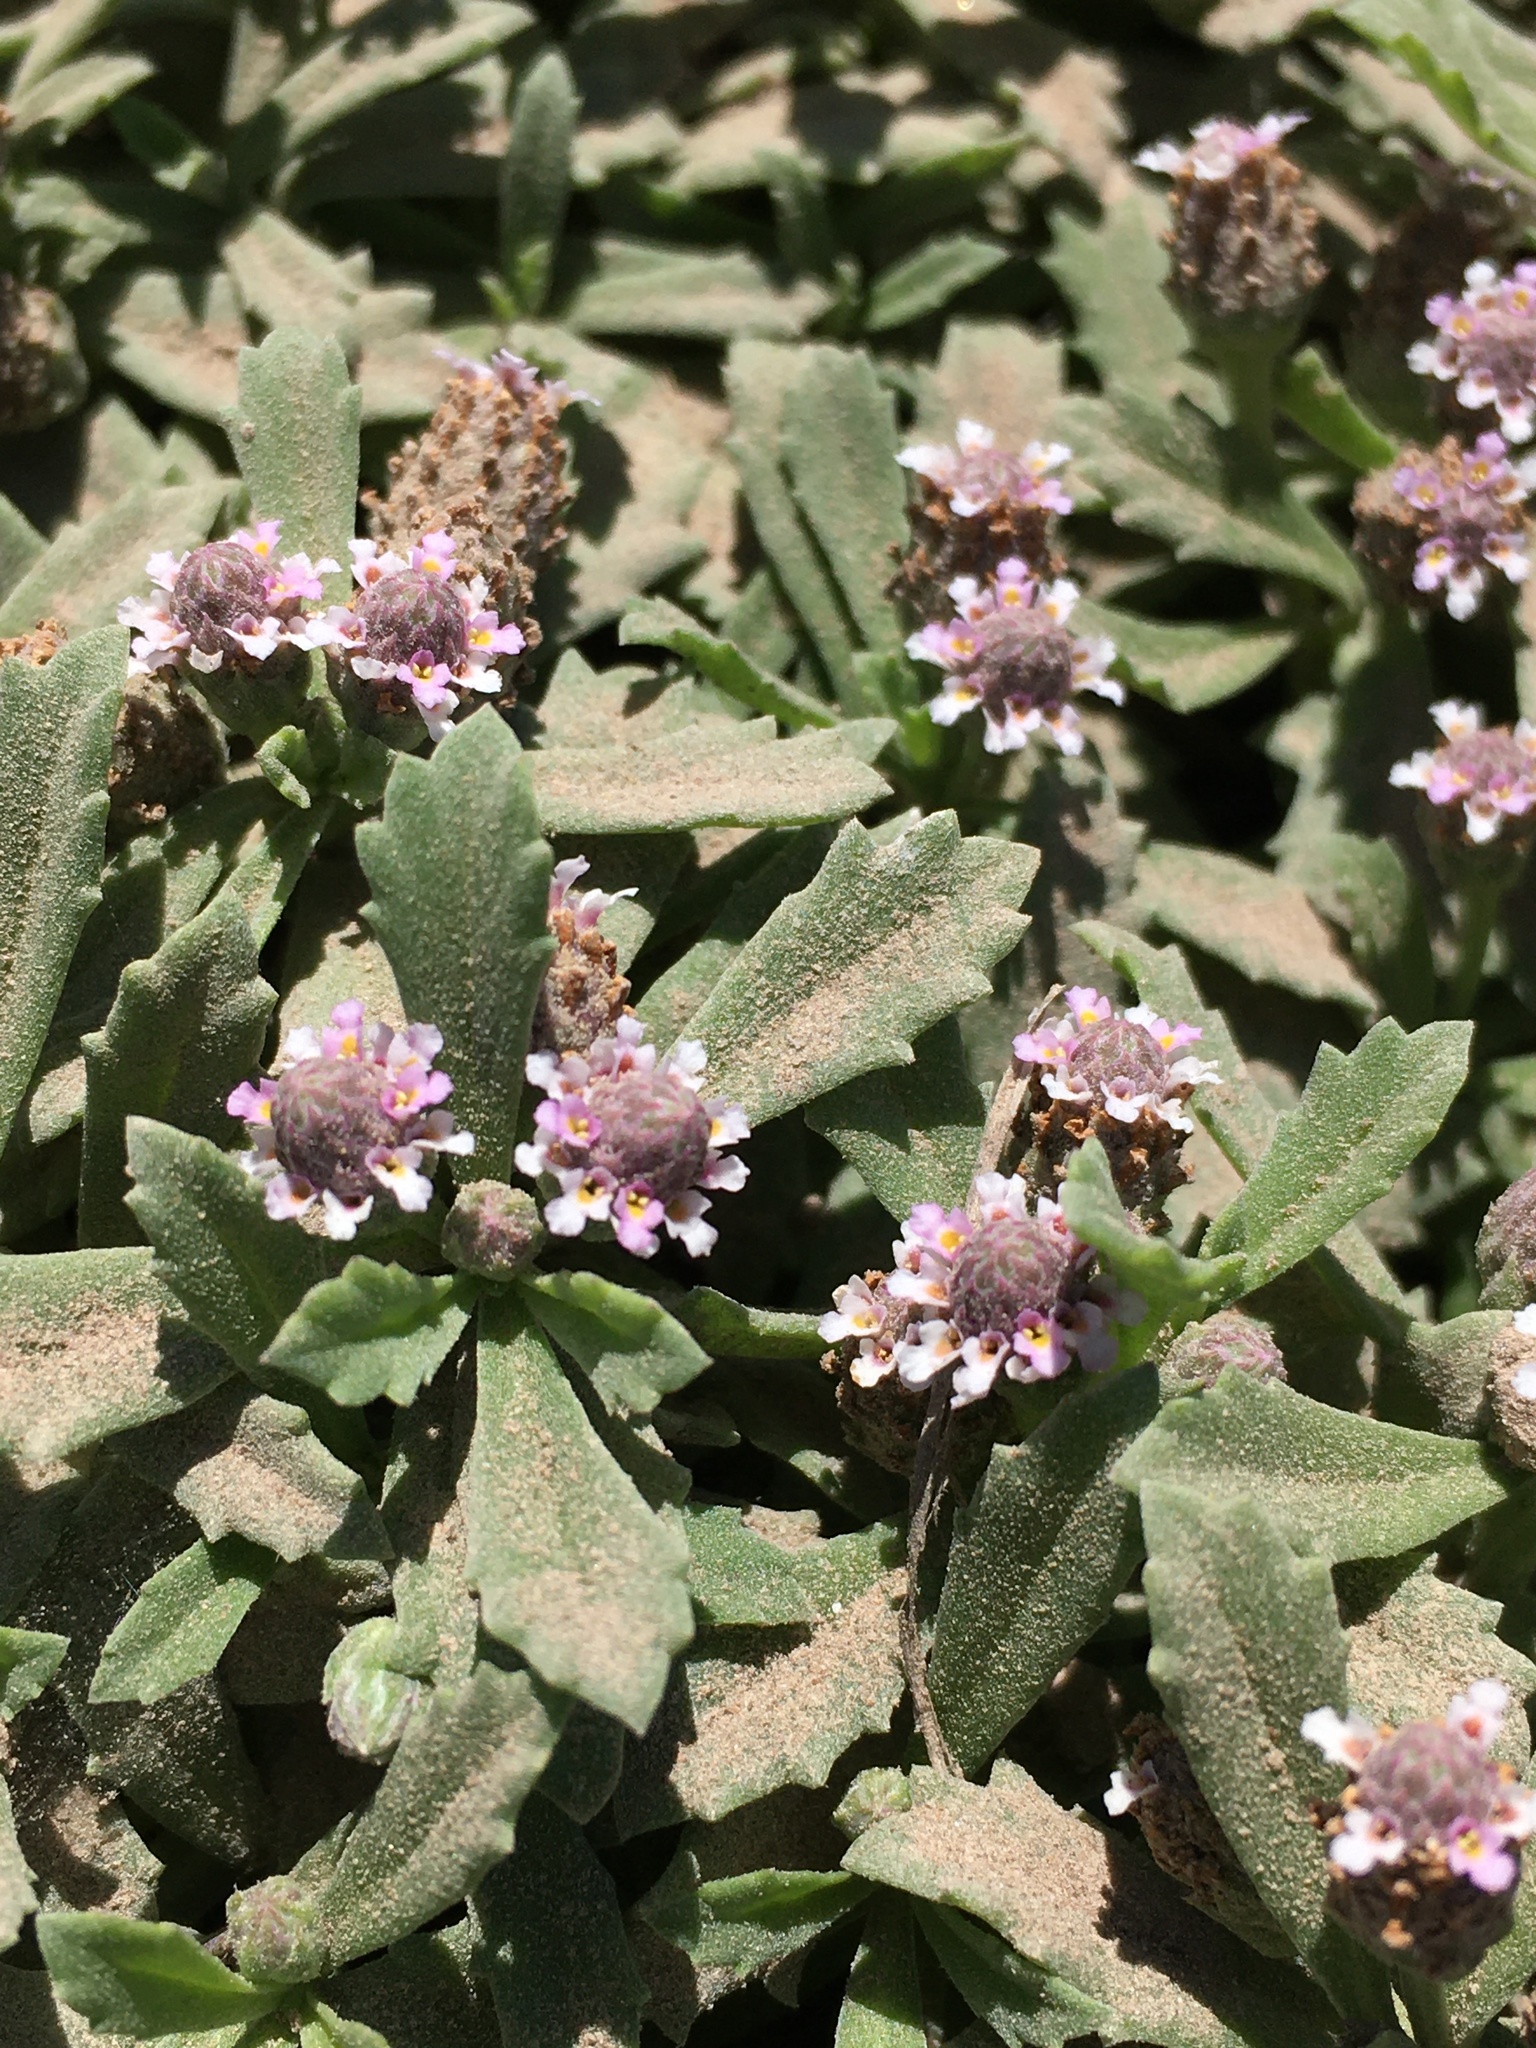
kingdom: Plantae
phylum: Tracheophyta
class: Magnoliopsida
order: Lamiales
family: Verbenaceae
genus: Phyla
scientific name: Phyla nodiflora
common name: Frogfruit
